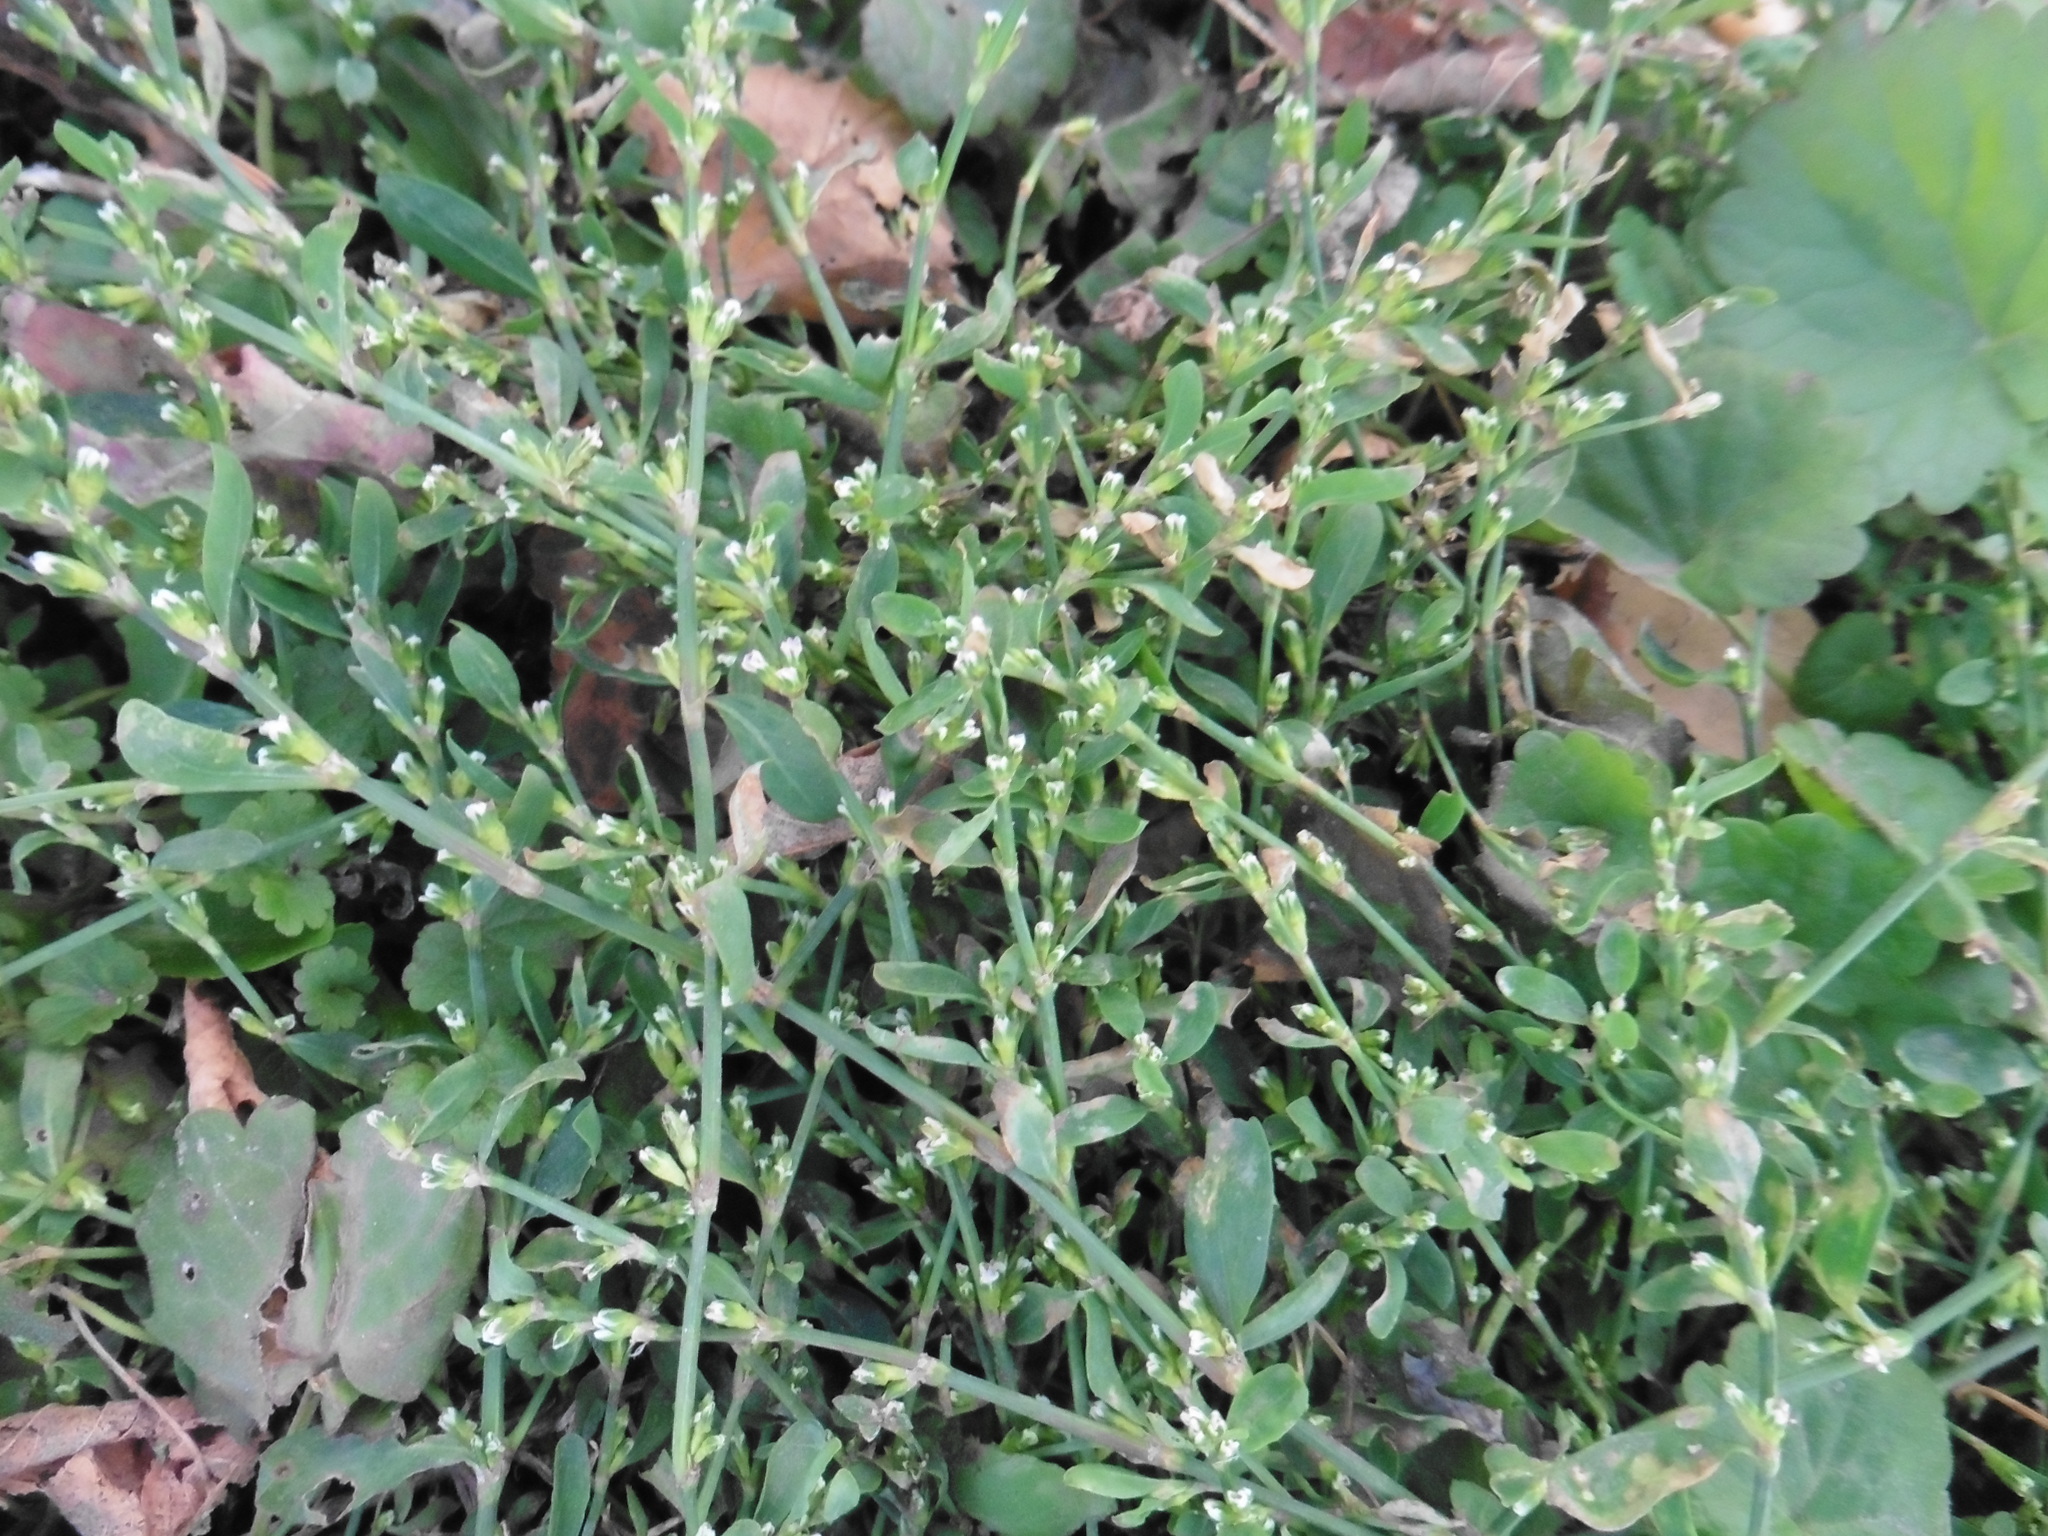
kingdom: Plantae
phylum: Tracheophyta
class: Magnoliopsida
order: Caryophyllales
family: Polygonaceae
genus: Polygonum
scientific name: Polygonum
